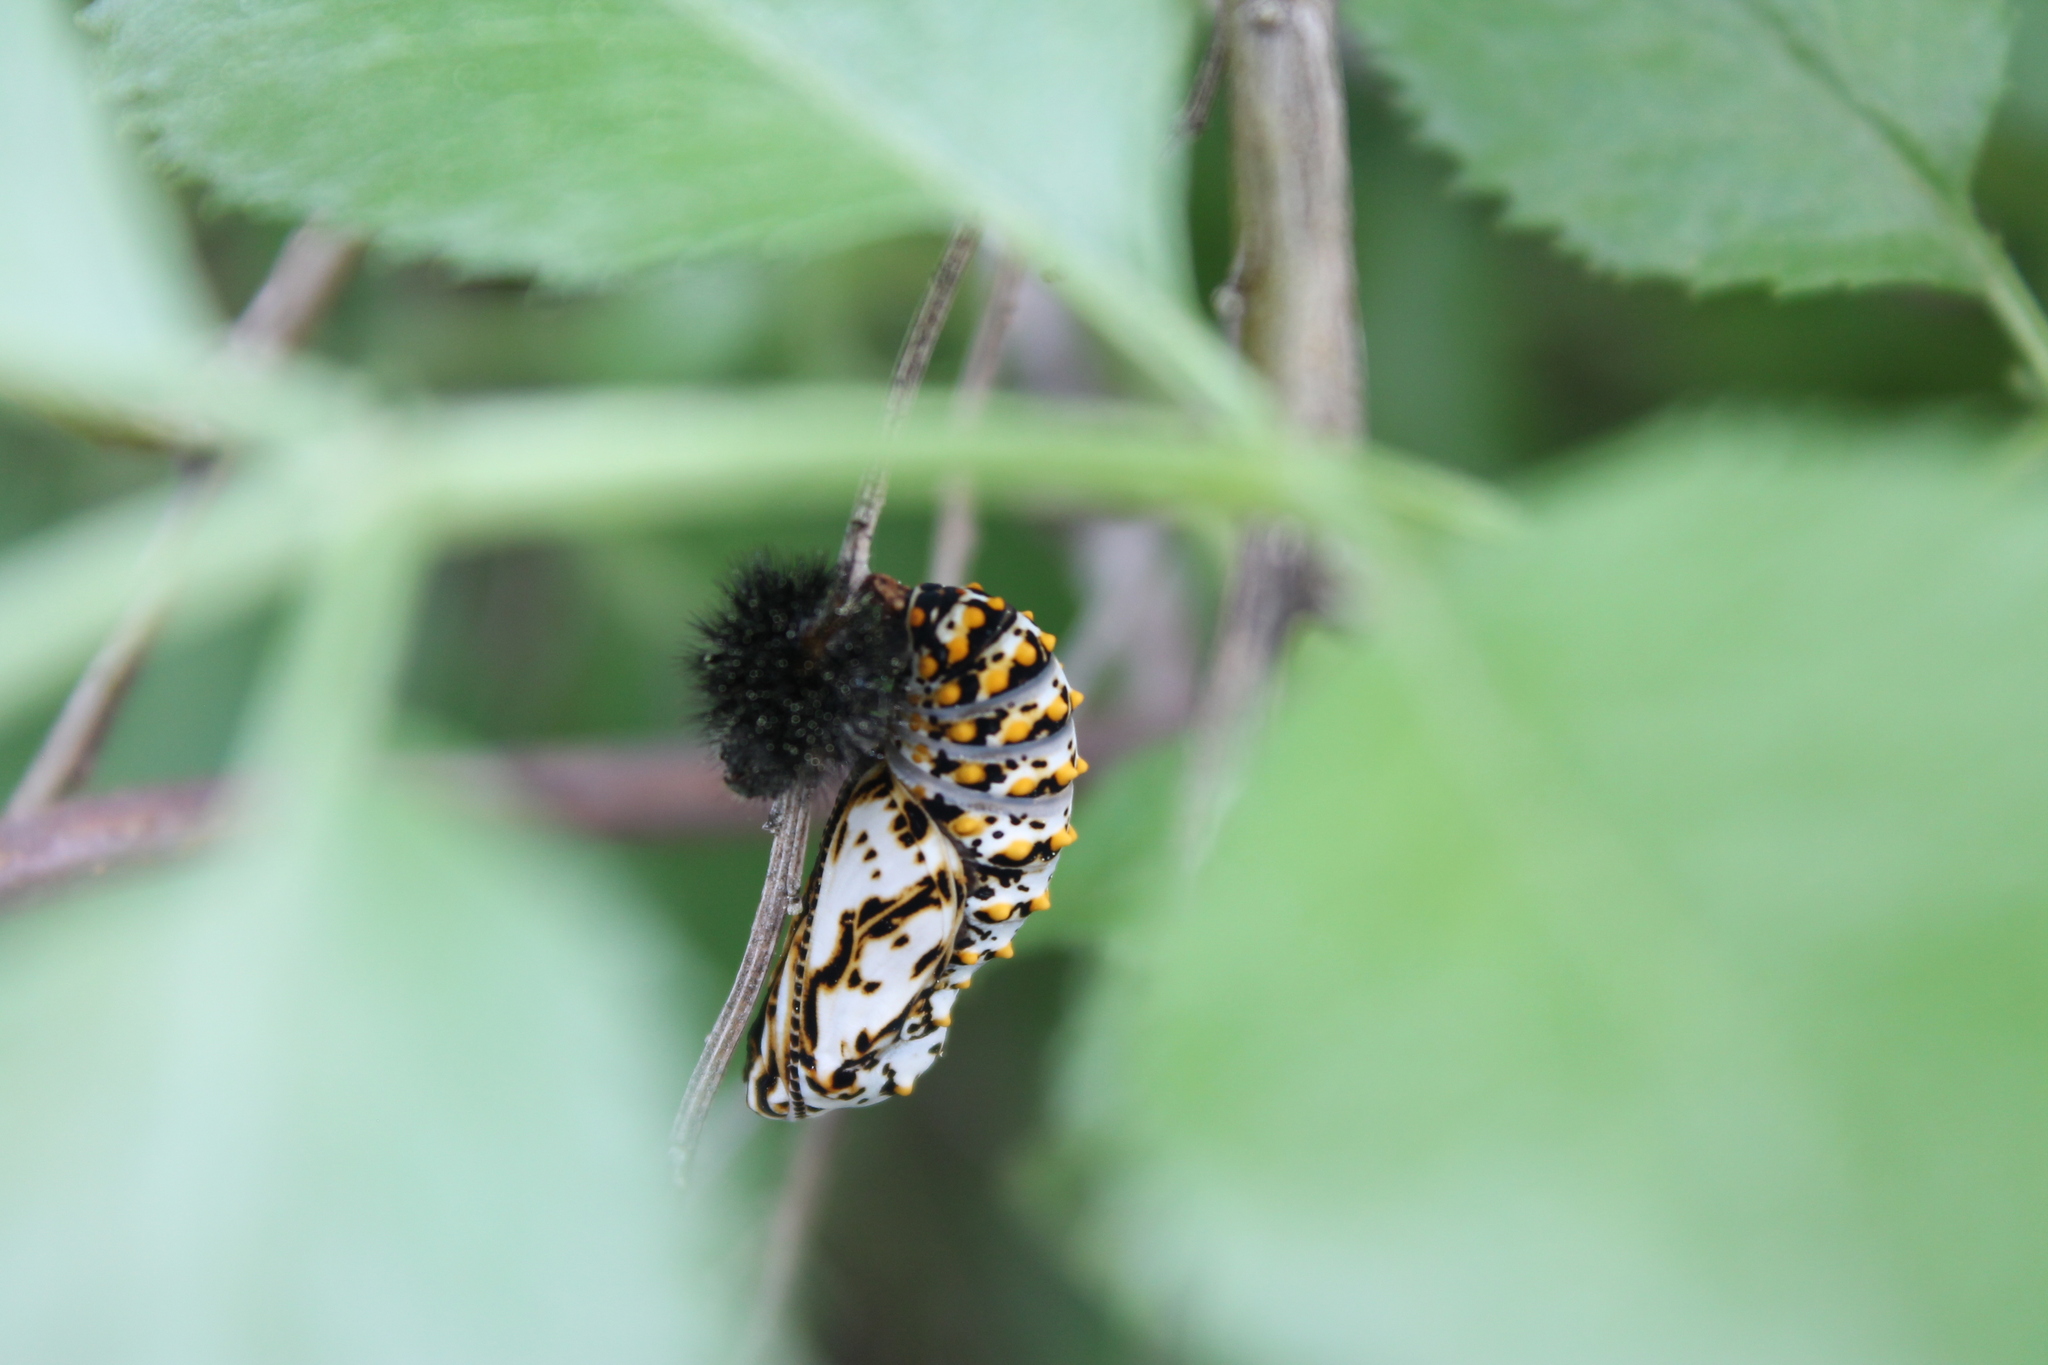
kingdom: Animalia
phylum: Arthropoda
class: Insecta
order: Lepidoptera
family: Nymphalidae
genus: Occidryas
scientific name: Occidryas chalcedona
